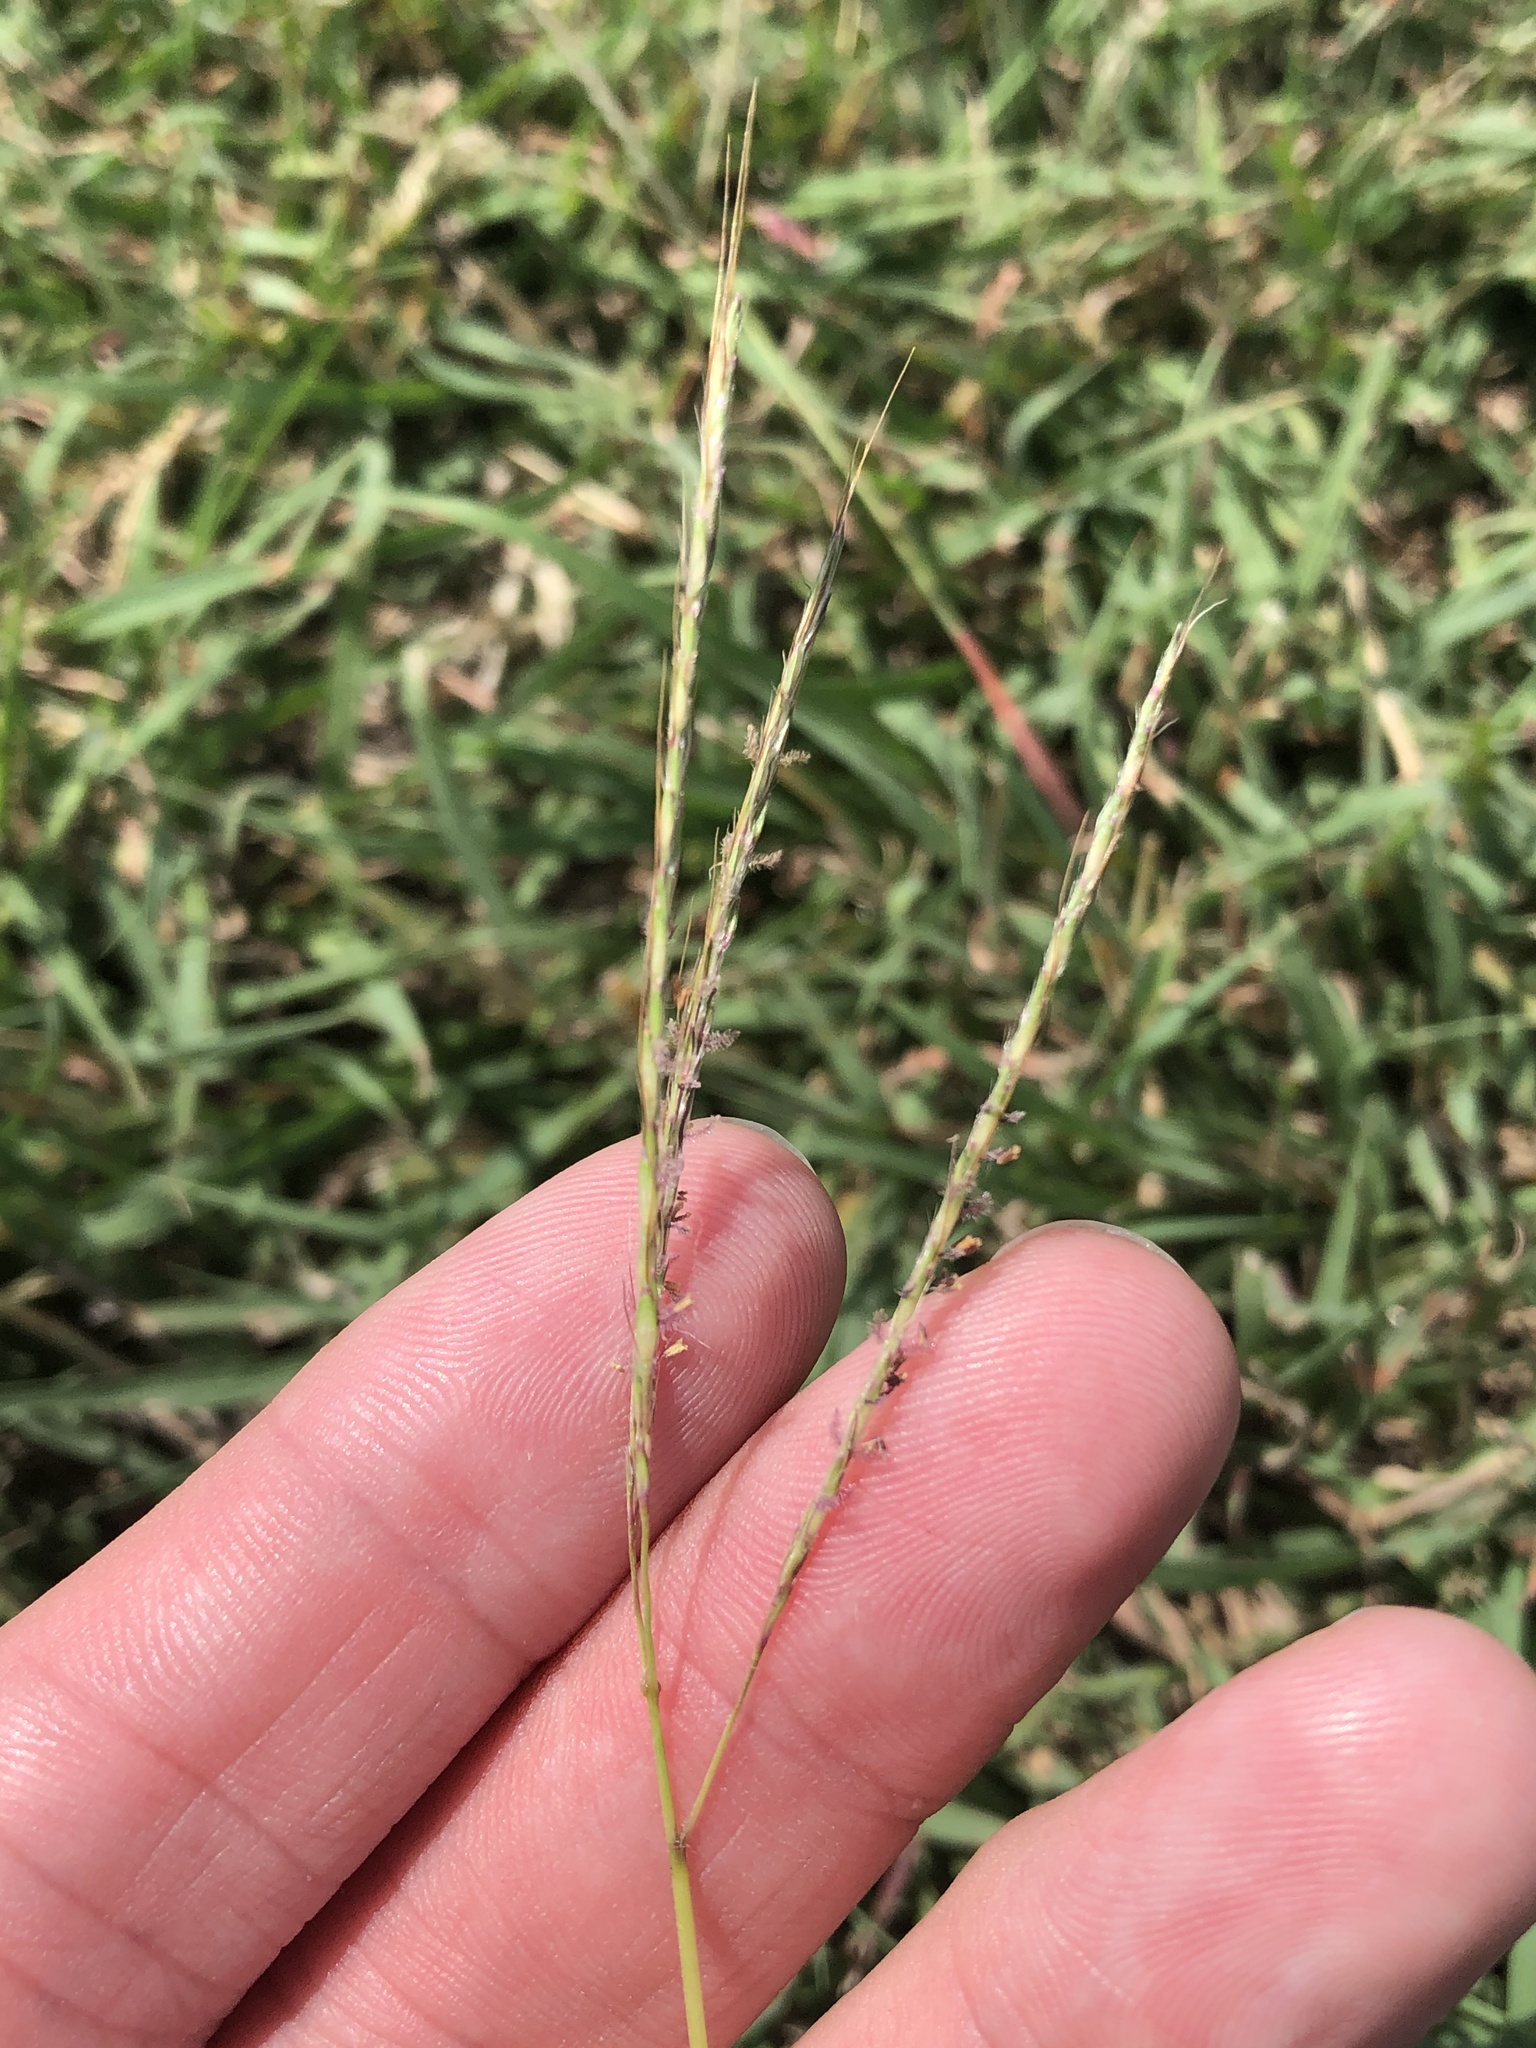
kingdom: Plantae
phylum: Tracheophyta
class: Liliopsida
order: Poales
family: Poaceae
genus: Bothriochloa
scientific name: Bothriochloa ischaemum
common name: Yellow bluestem
